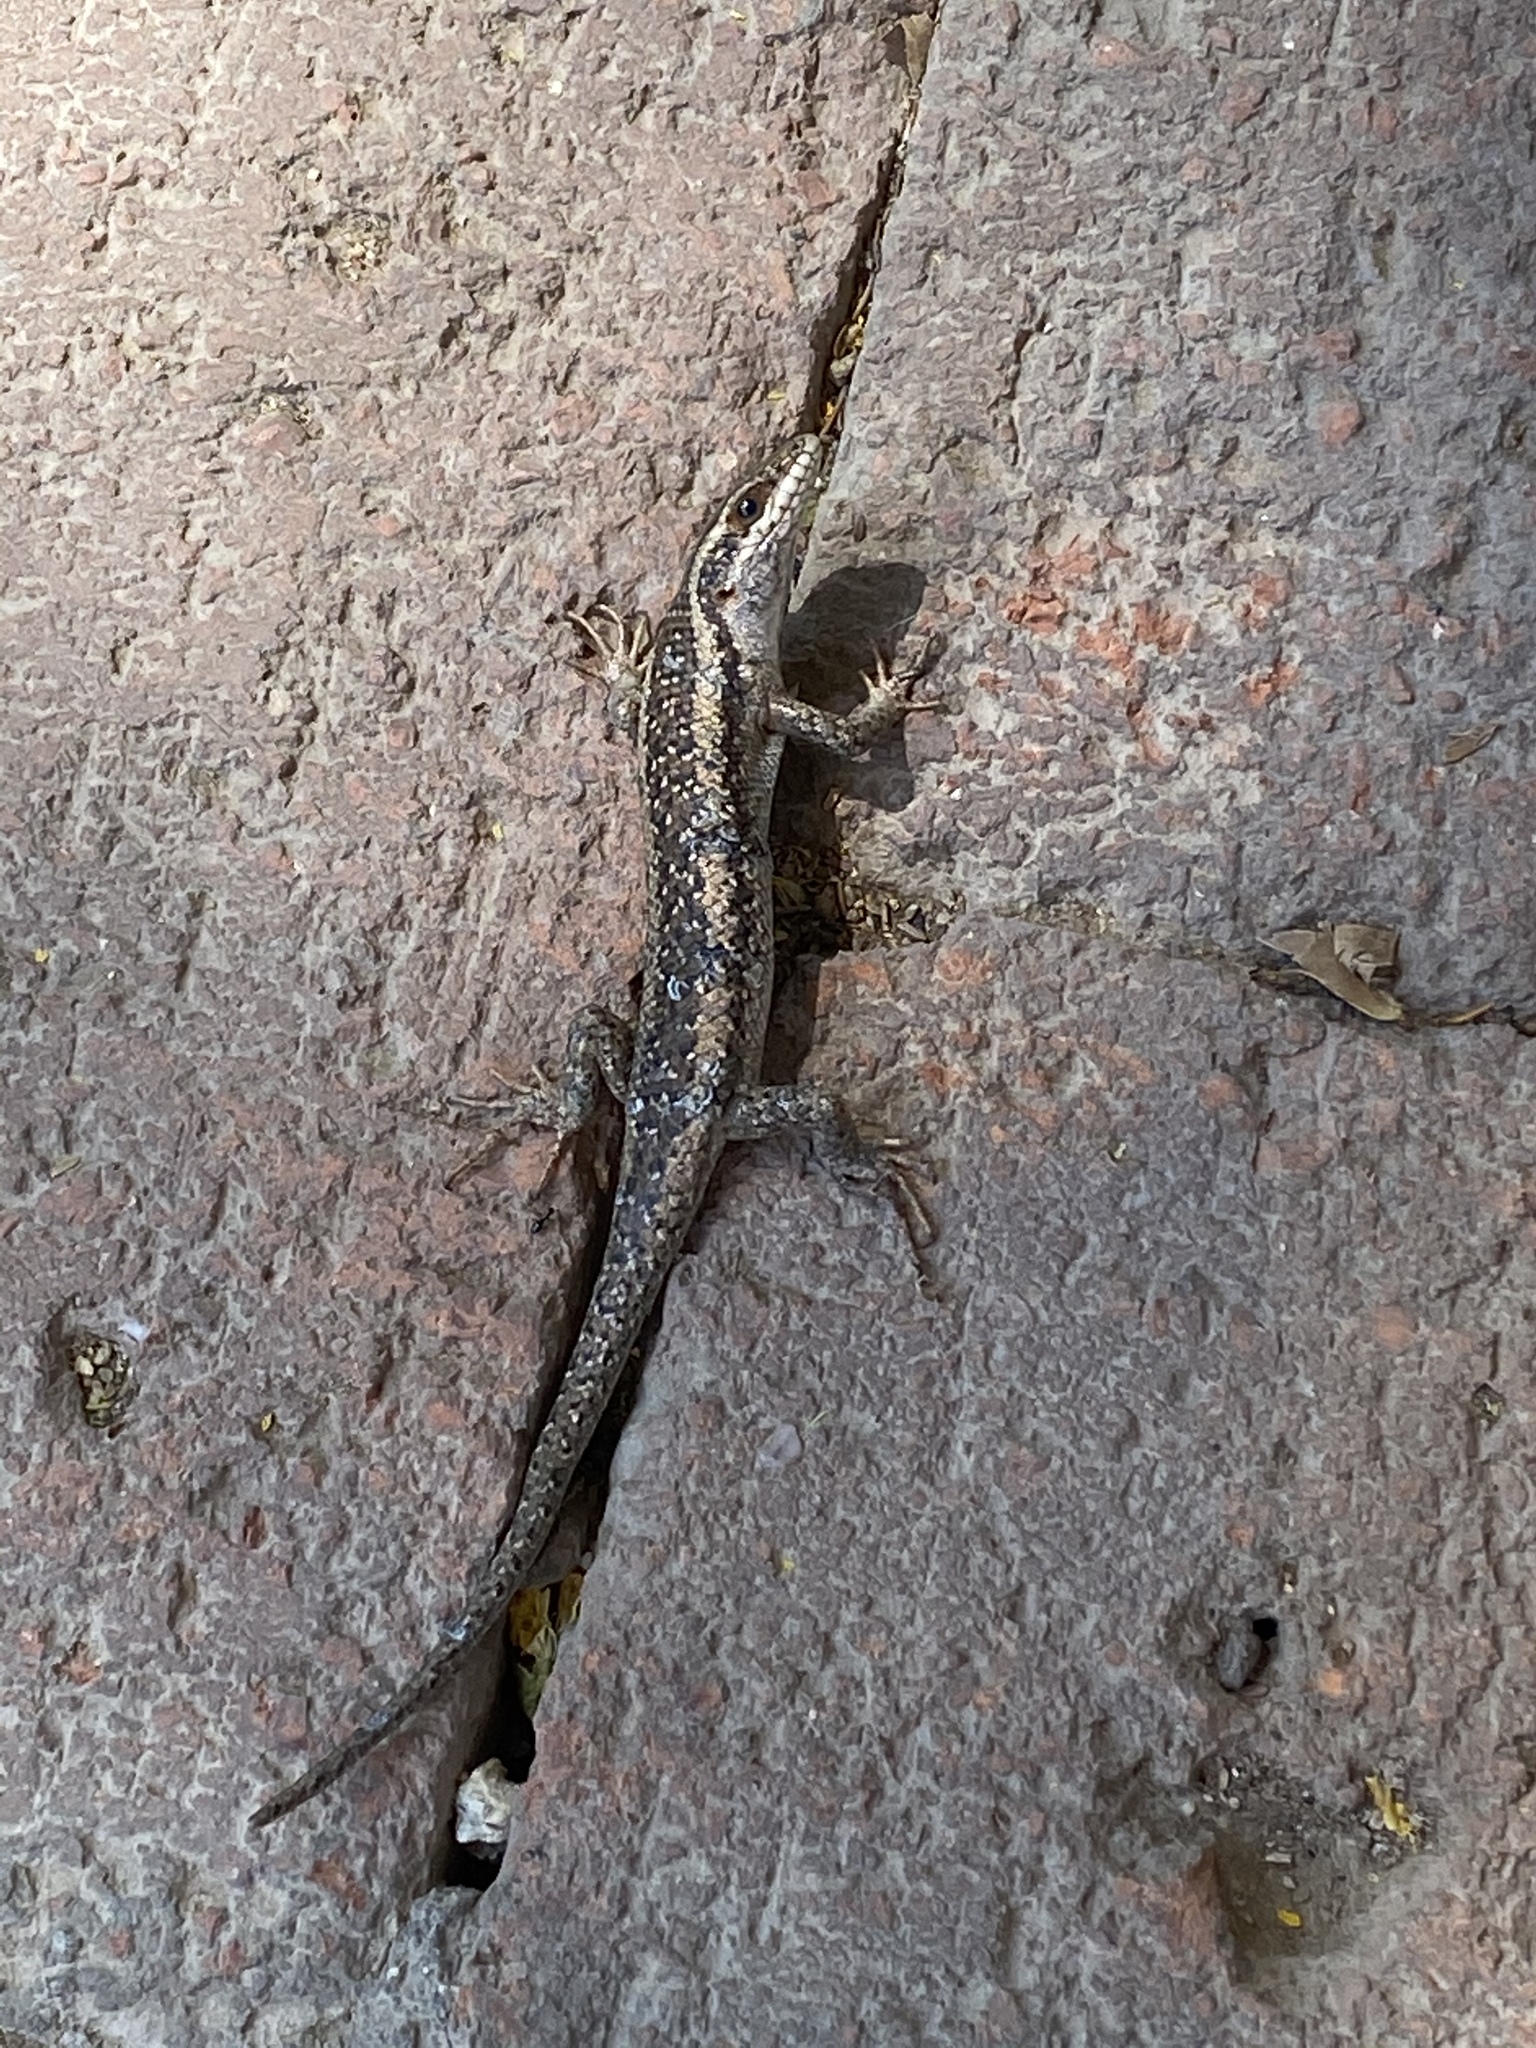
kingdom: Animalia
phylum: Chordata
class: Squamata
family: Scincidae
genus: Trachylepis
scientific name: Trachylepis spilogaster
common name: Kalahari tree skink
